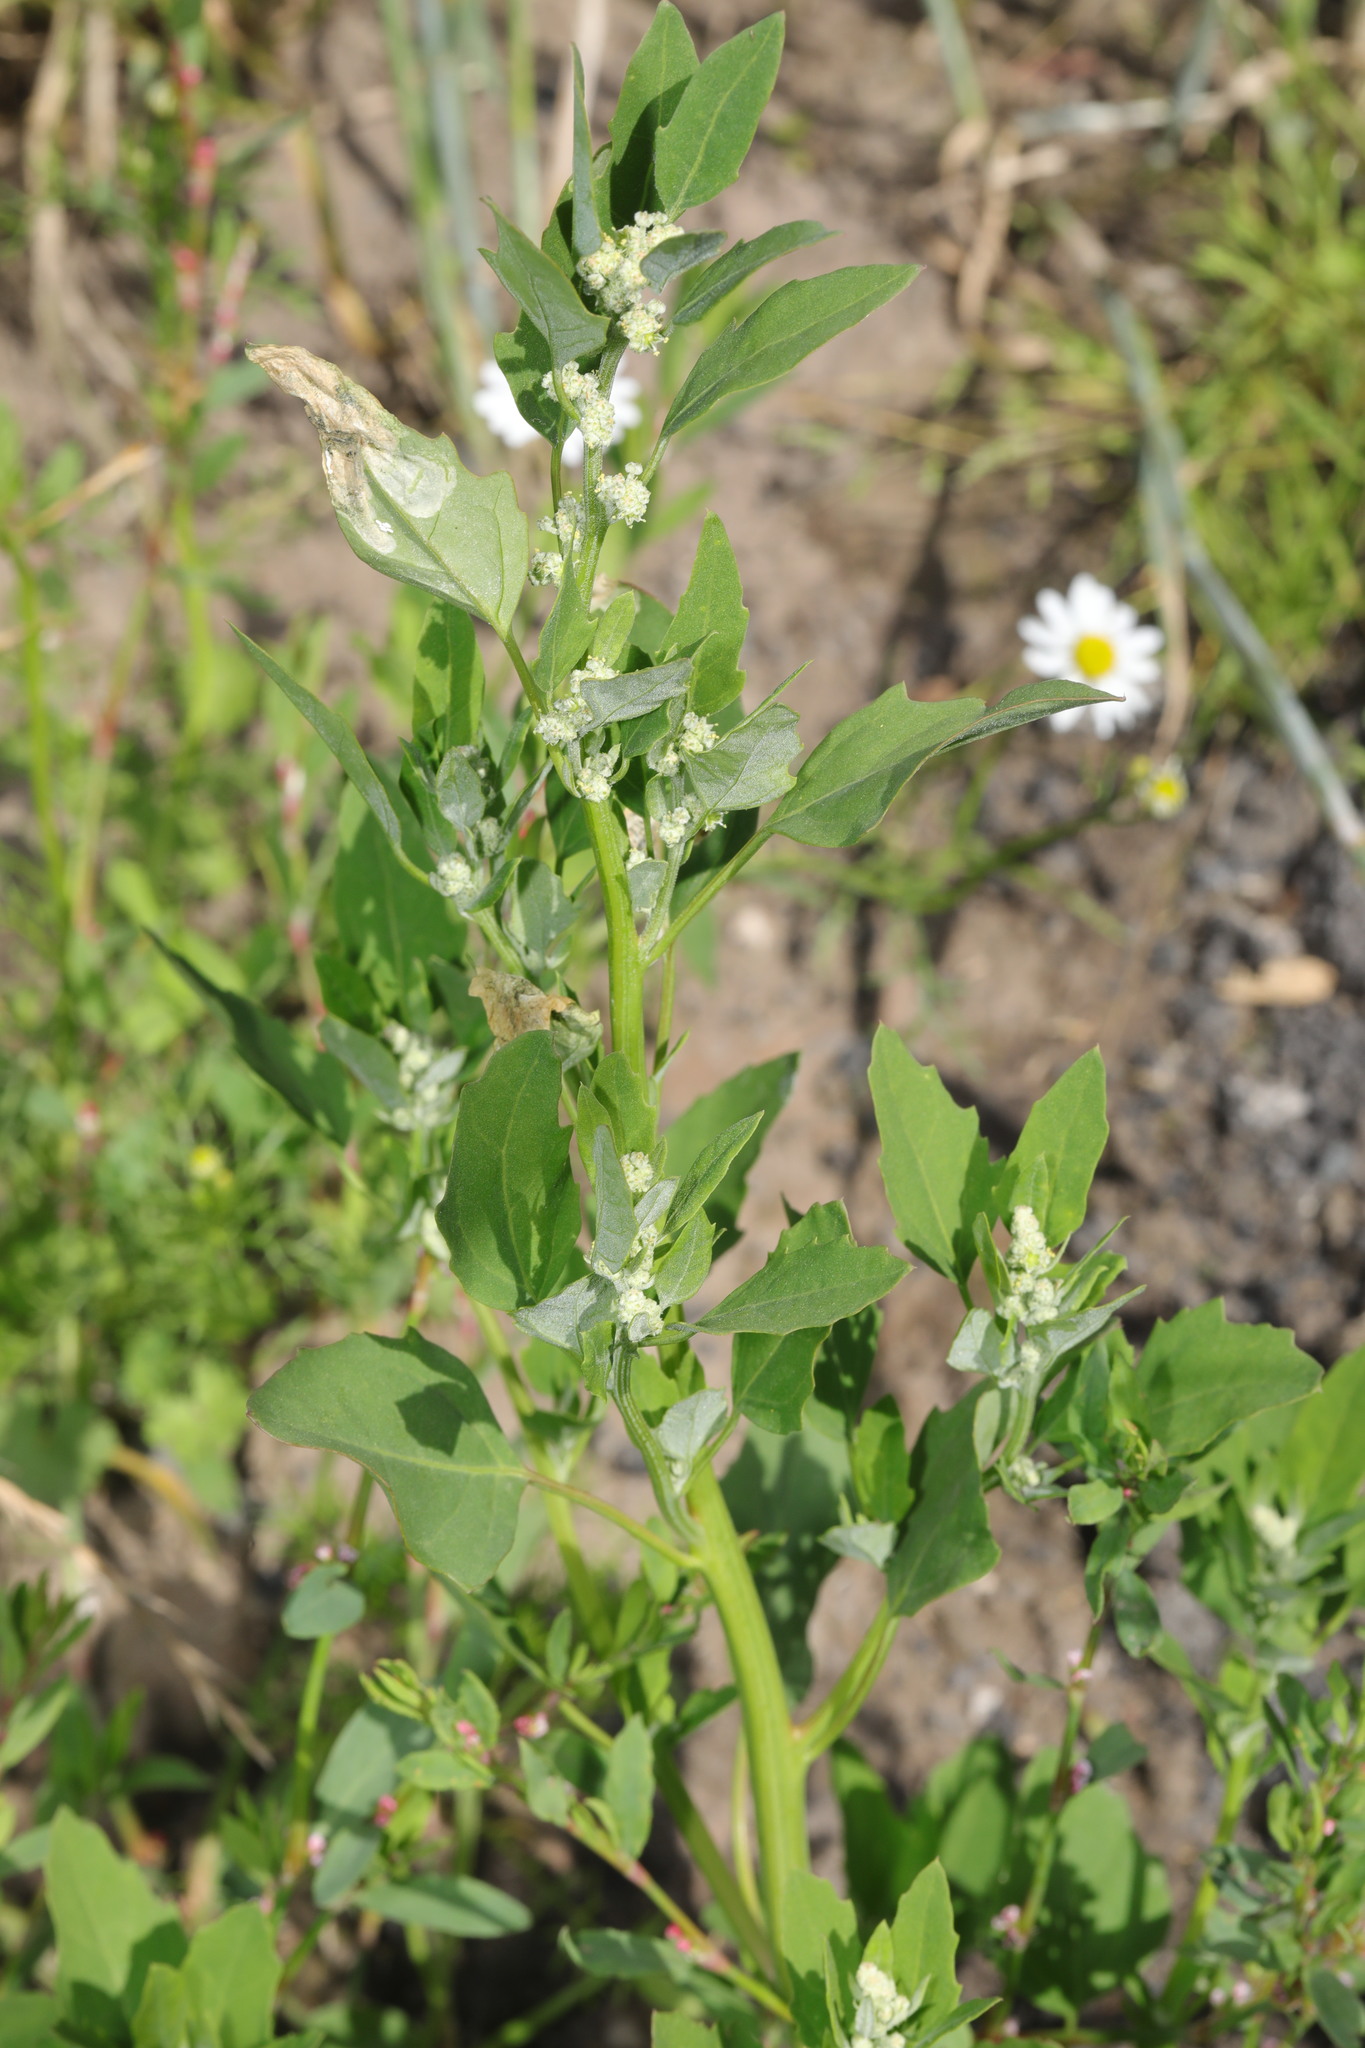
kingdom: Plantae
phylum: Tracheophyta
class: Magnoliopsida
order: Caryophyllales
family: Amaranthaceae
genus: Chenopodium
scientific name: Chenopodium album
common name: Fat-hen
